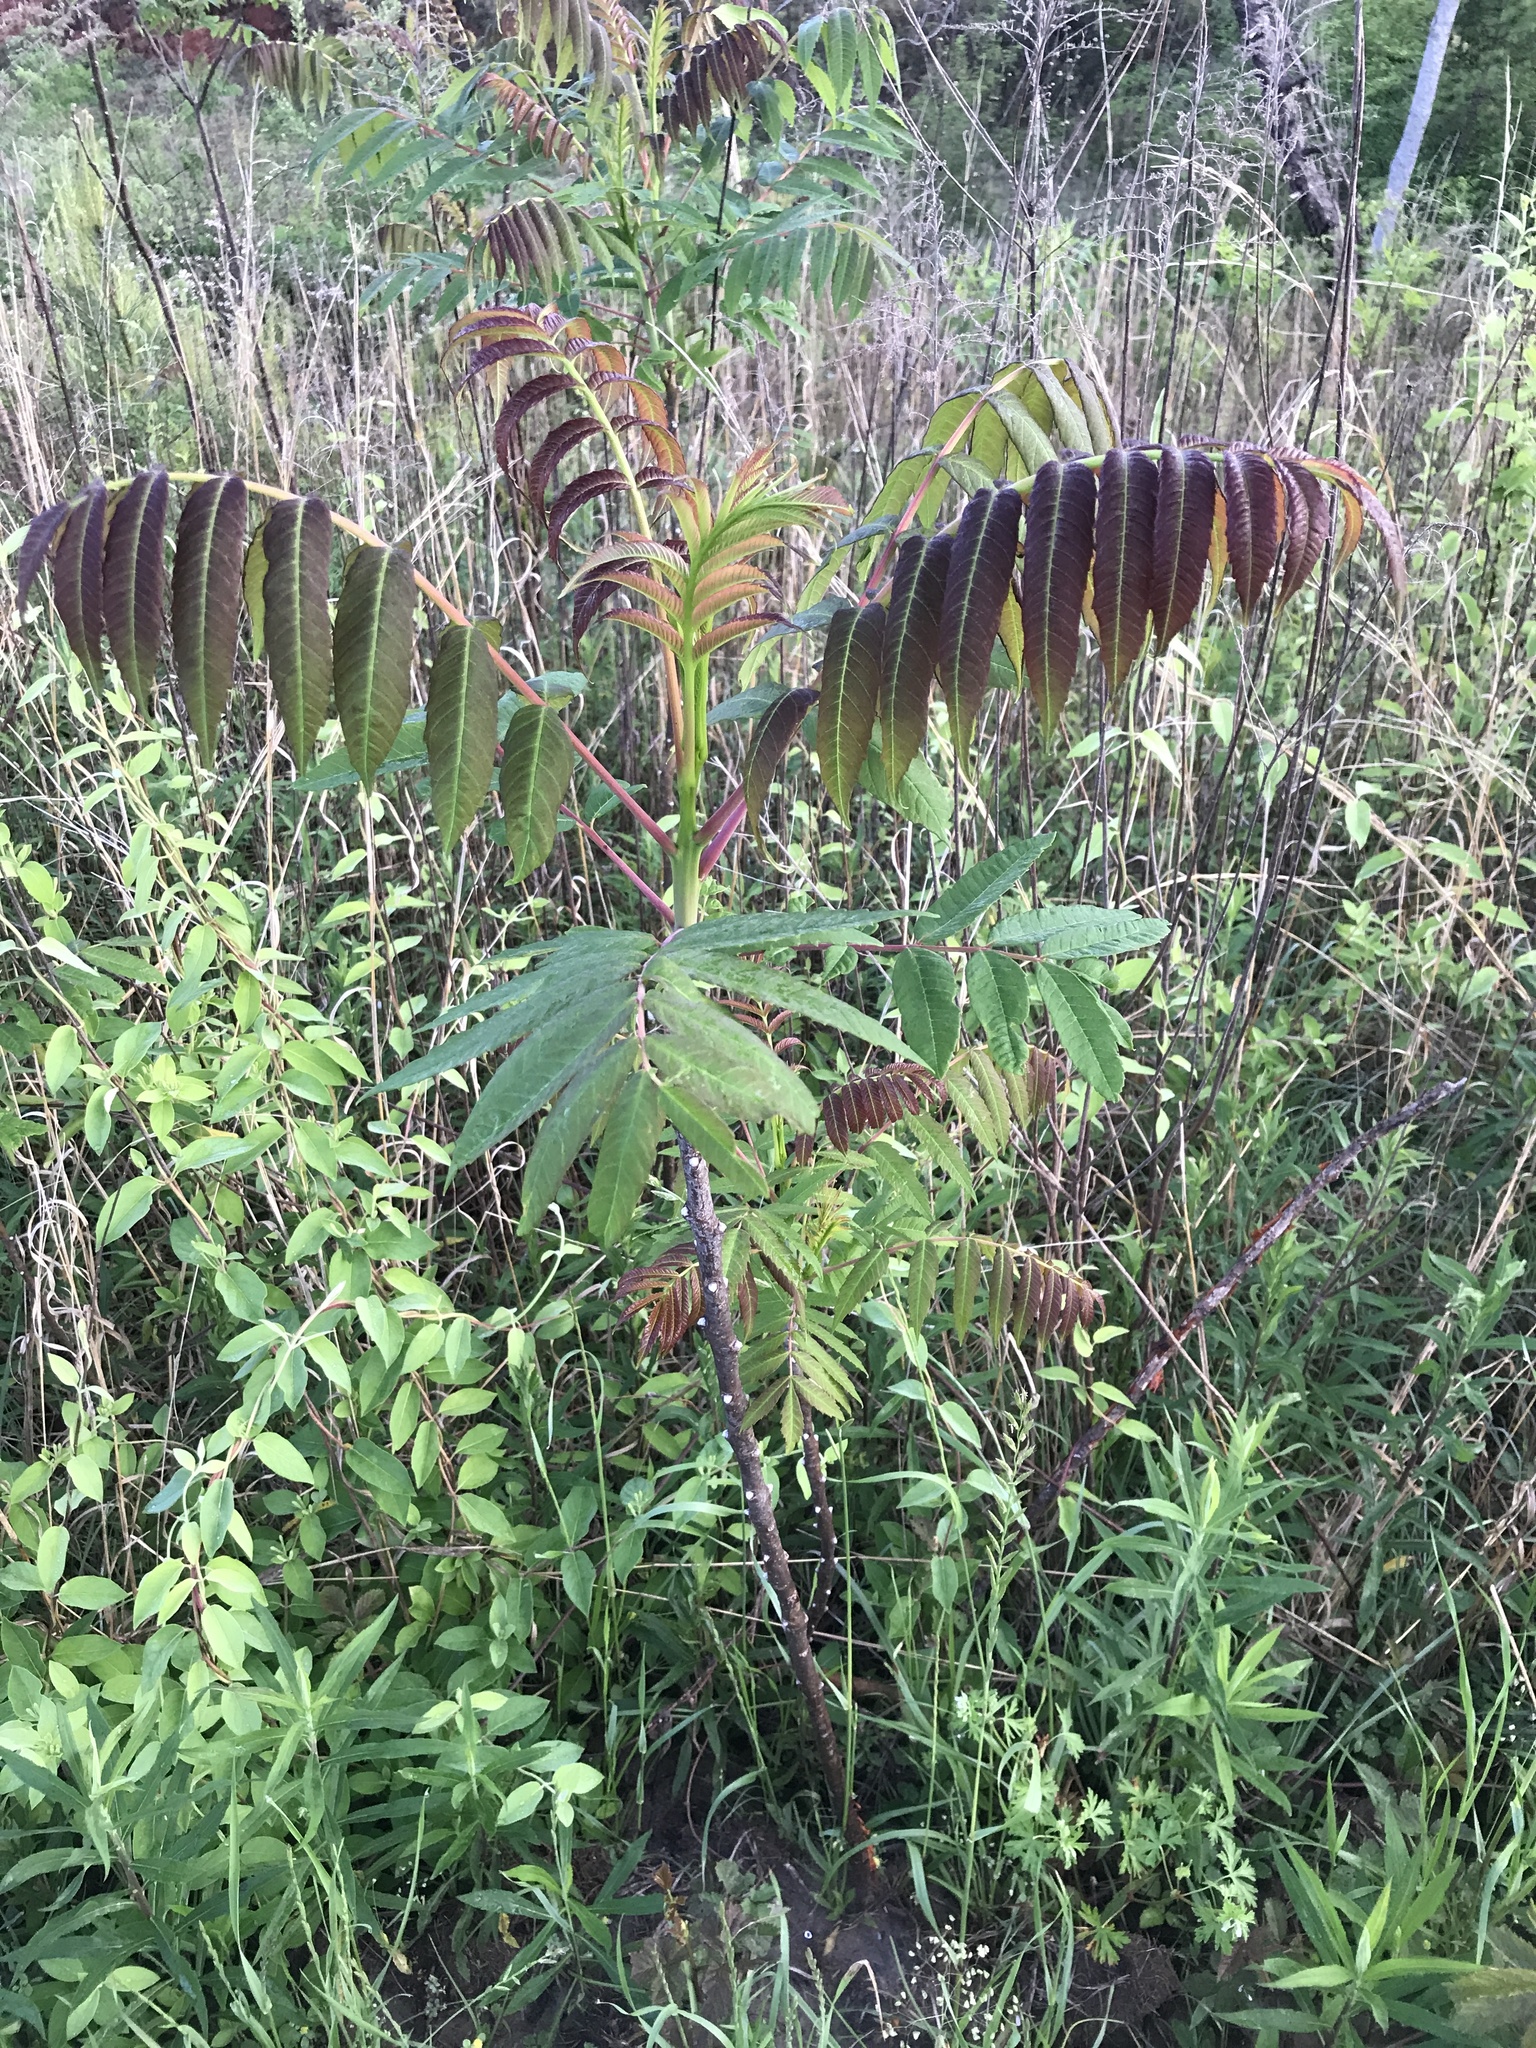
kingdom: Plantae
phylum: Tracheophyta
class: Magnoliopsida
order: Sapindales
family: Anacardiaceae
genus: Rhus
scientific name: Rhus glabra
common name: Scarlet sumac
